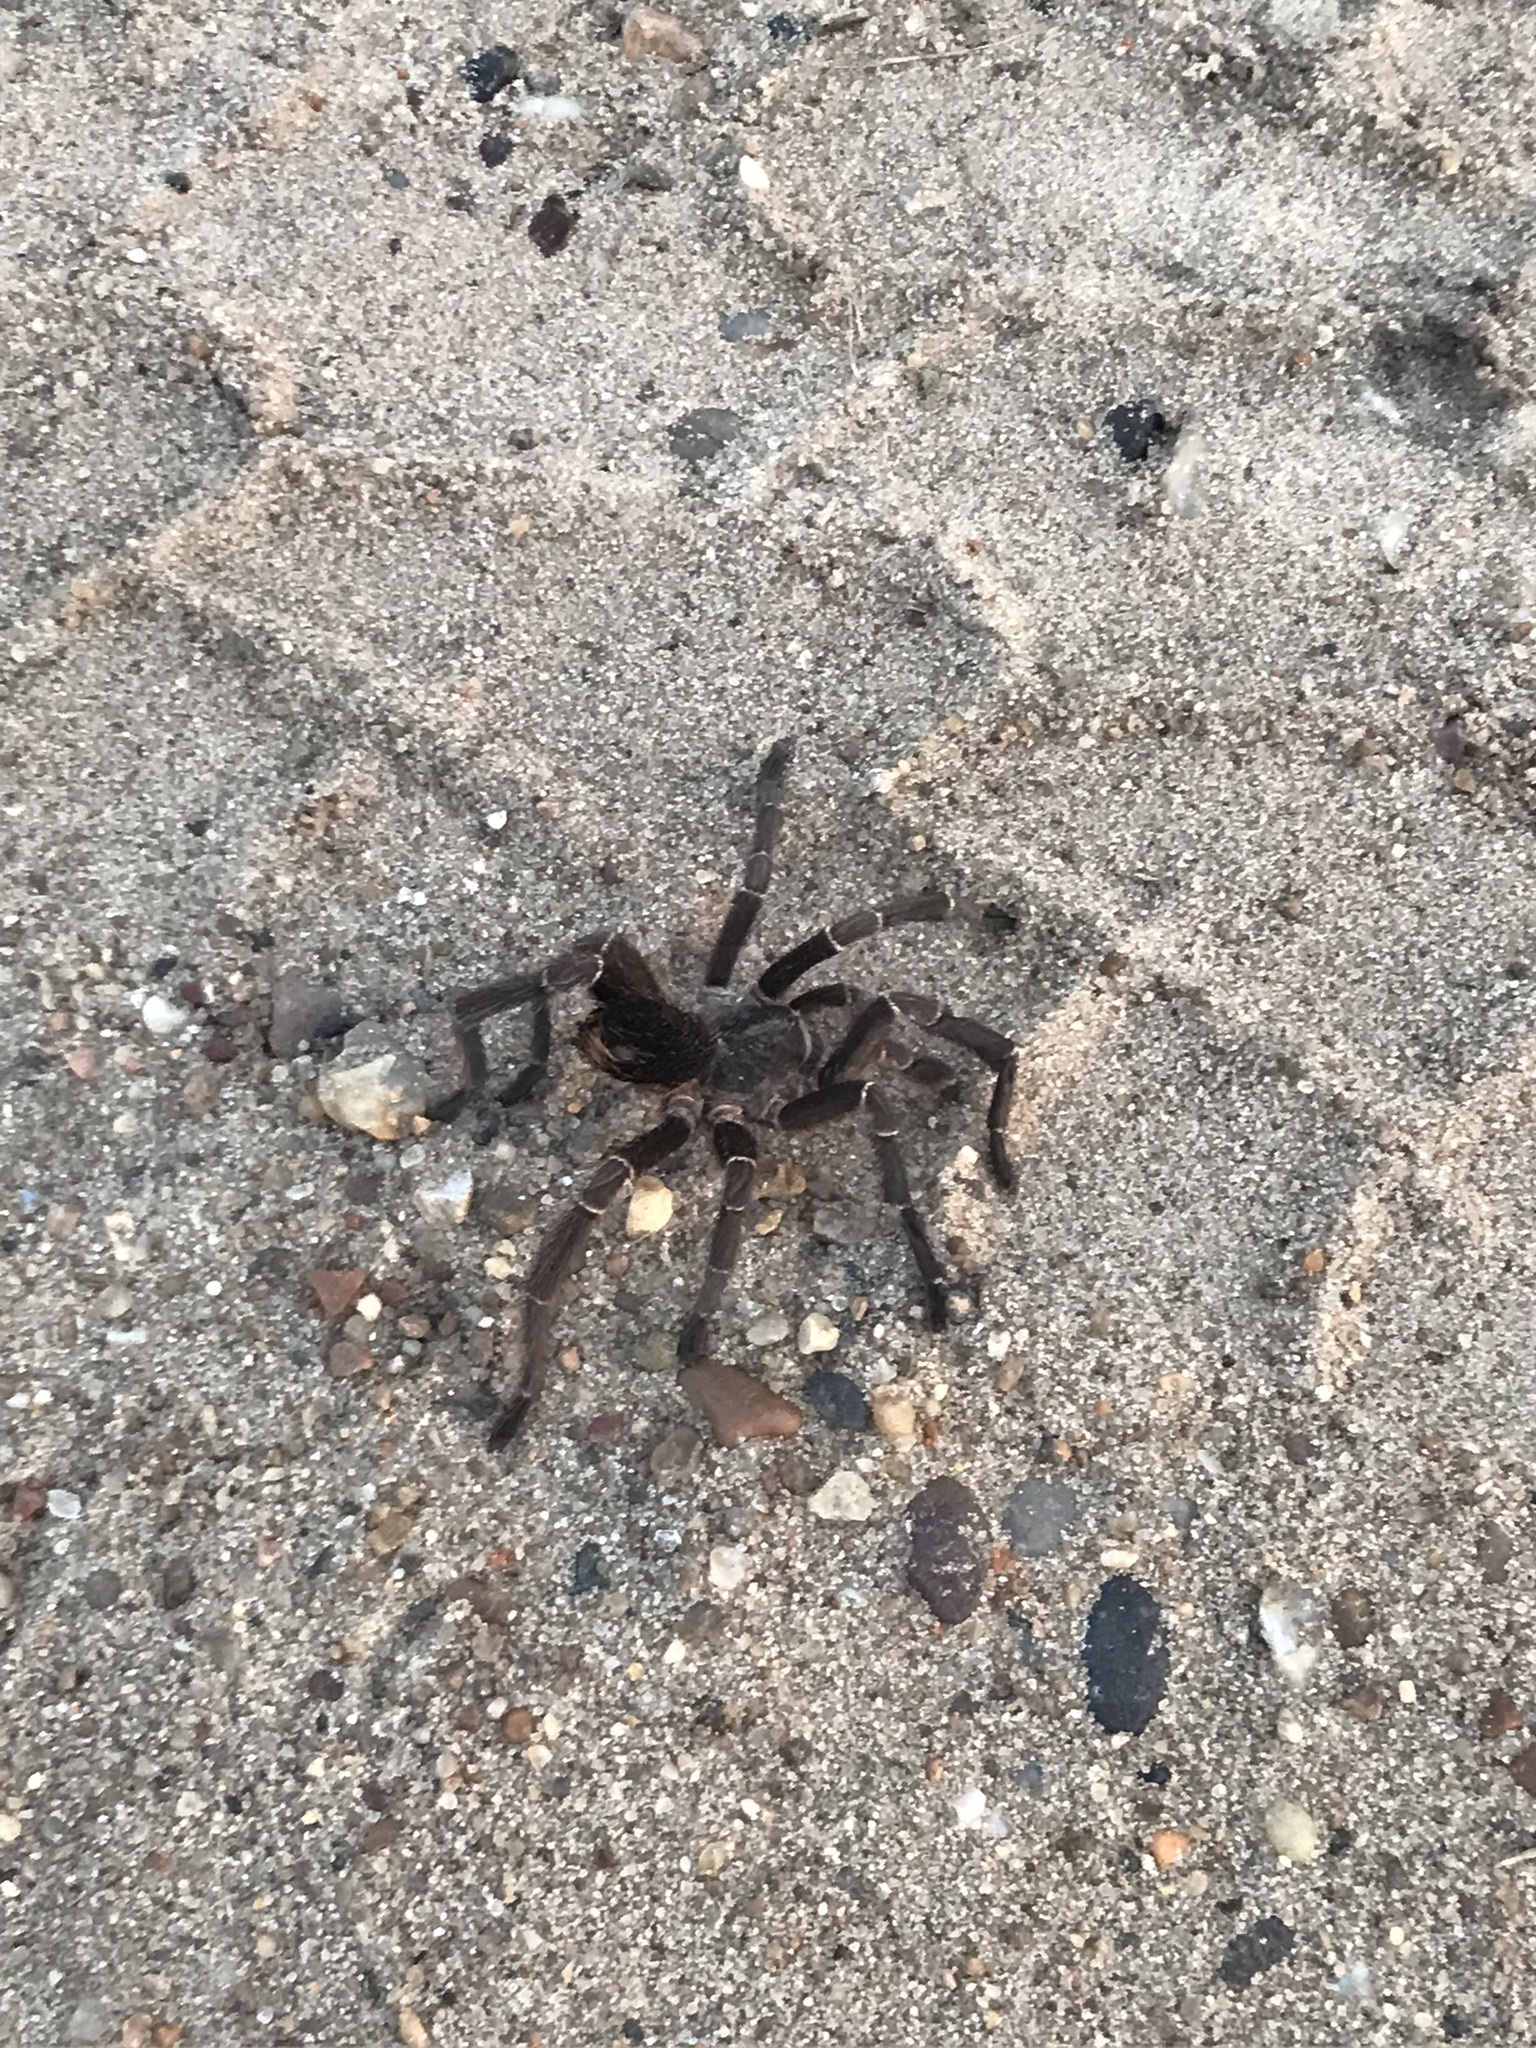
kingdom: Animalia
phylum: Arthropoda
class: Arachnida
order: Araneae
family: Theraphosidae
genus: Eupalaestrus
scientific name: Eupalaestrus weijenberghi
